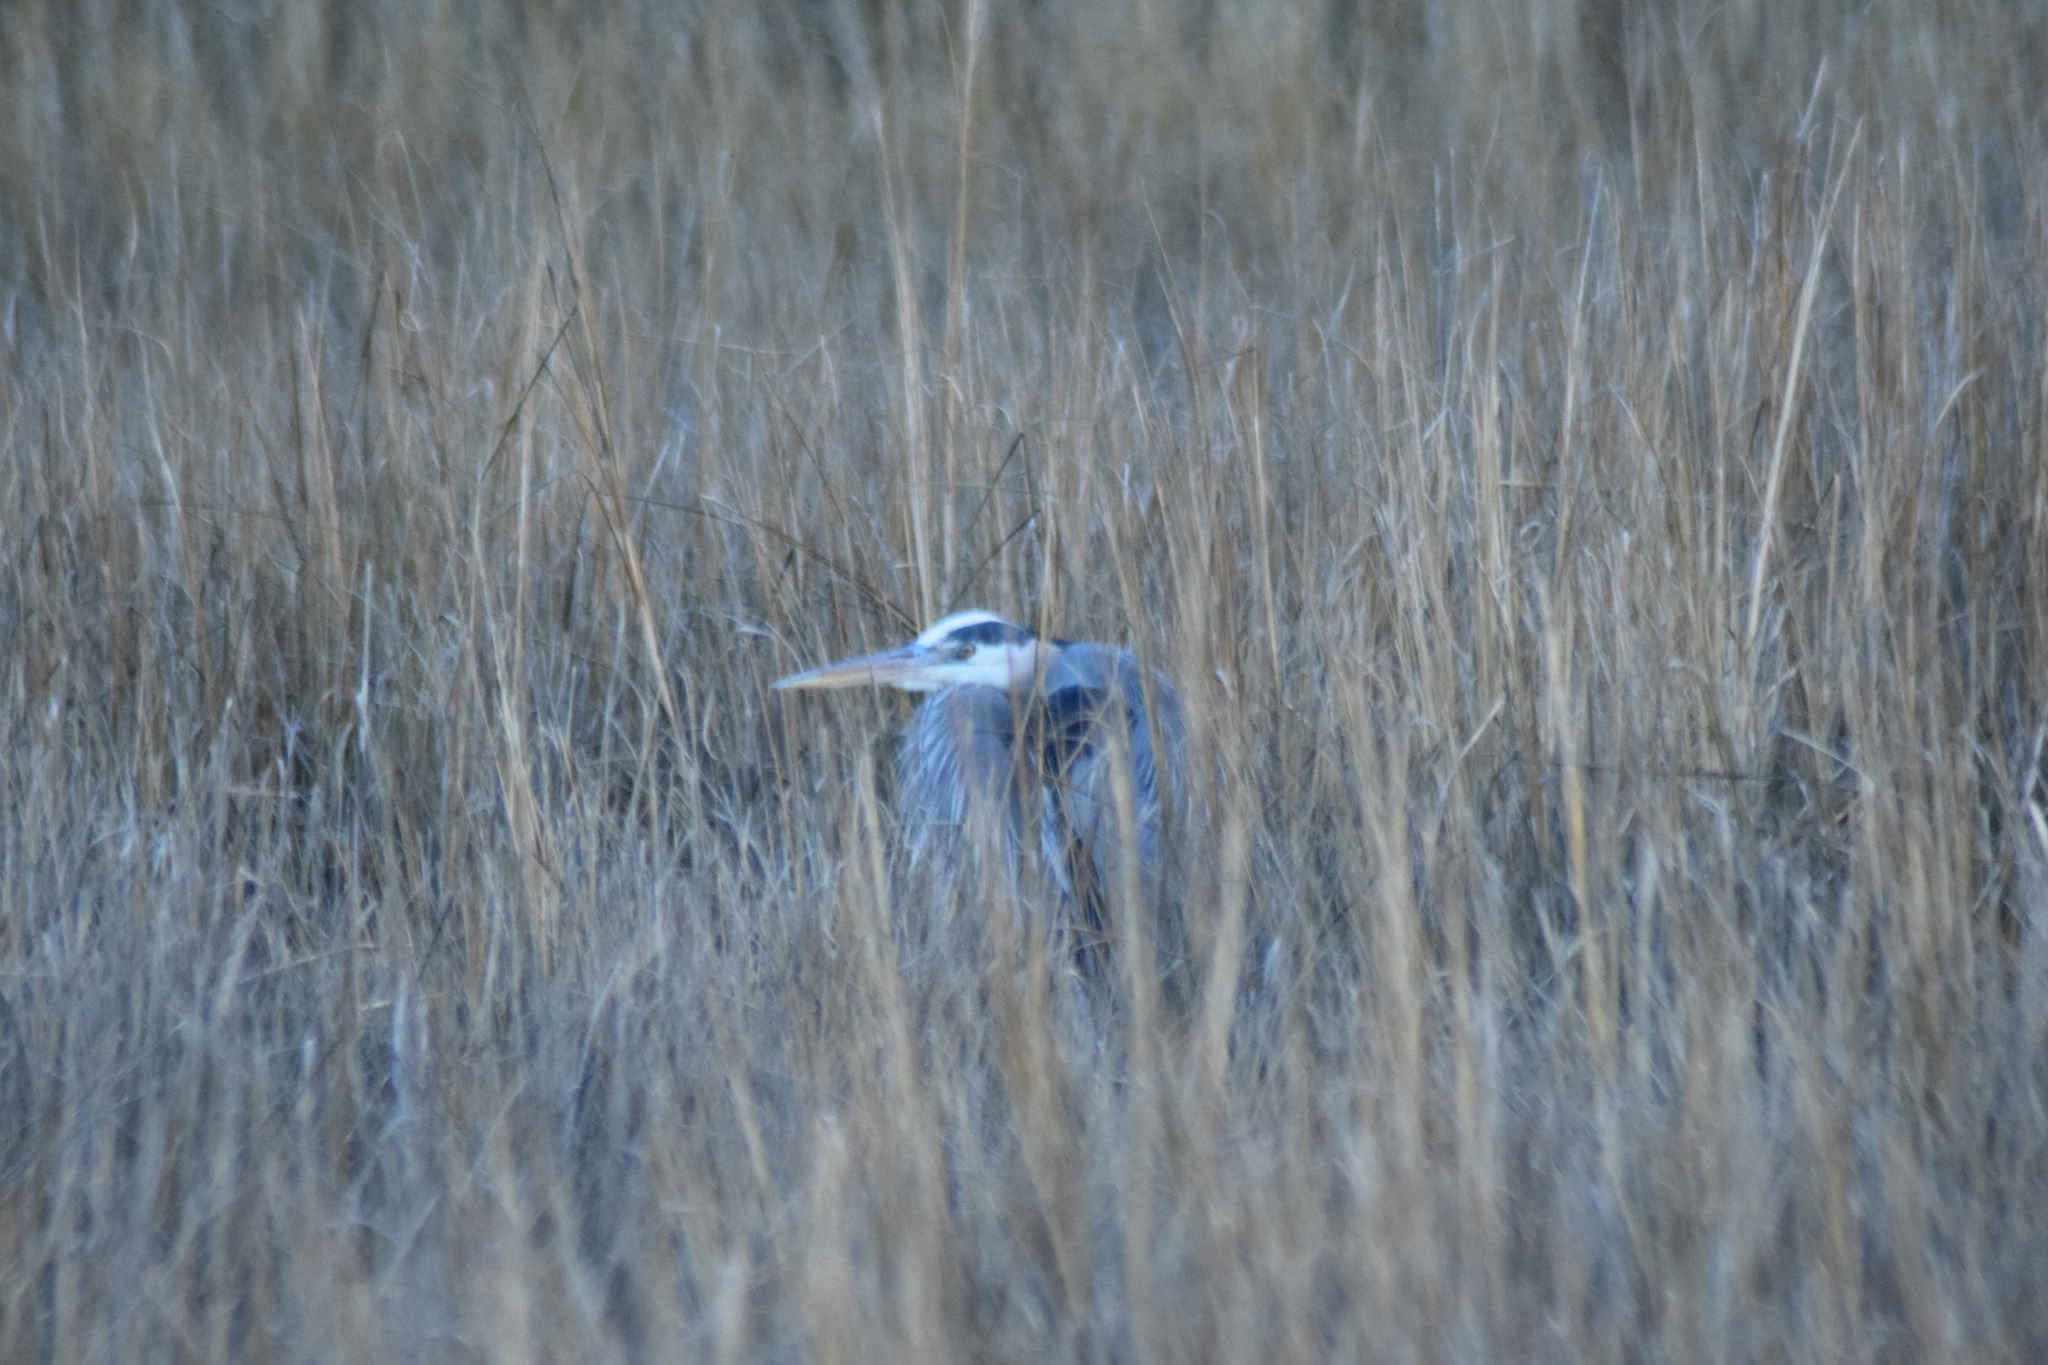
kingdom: Animalia
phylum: Chordata
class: Aves
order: Pelecaniformes
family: Ardeidae
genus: Ardea
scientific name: Ardea herodias
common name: Great blue heron
